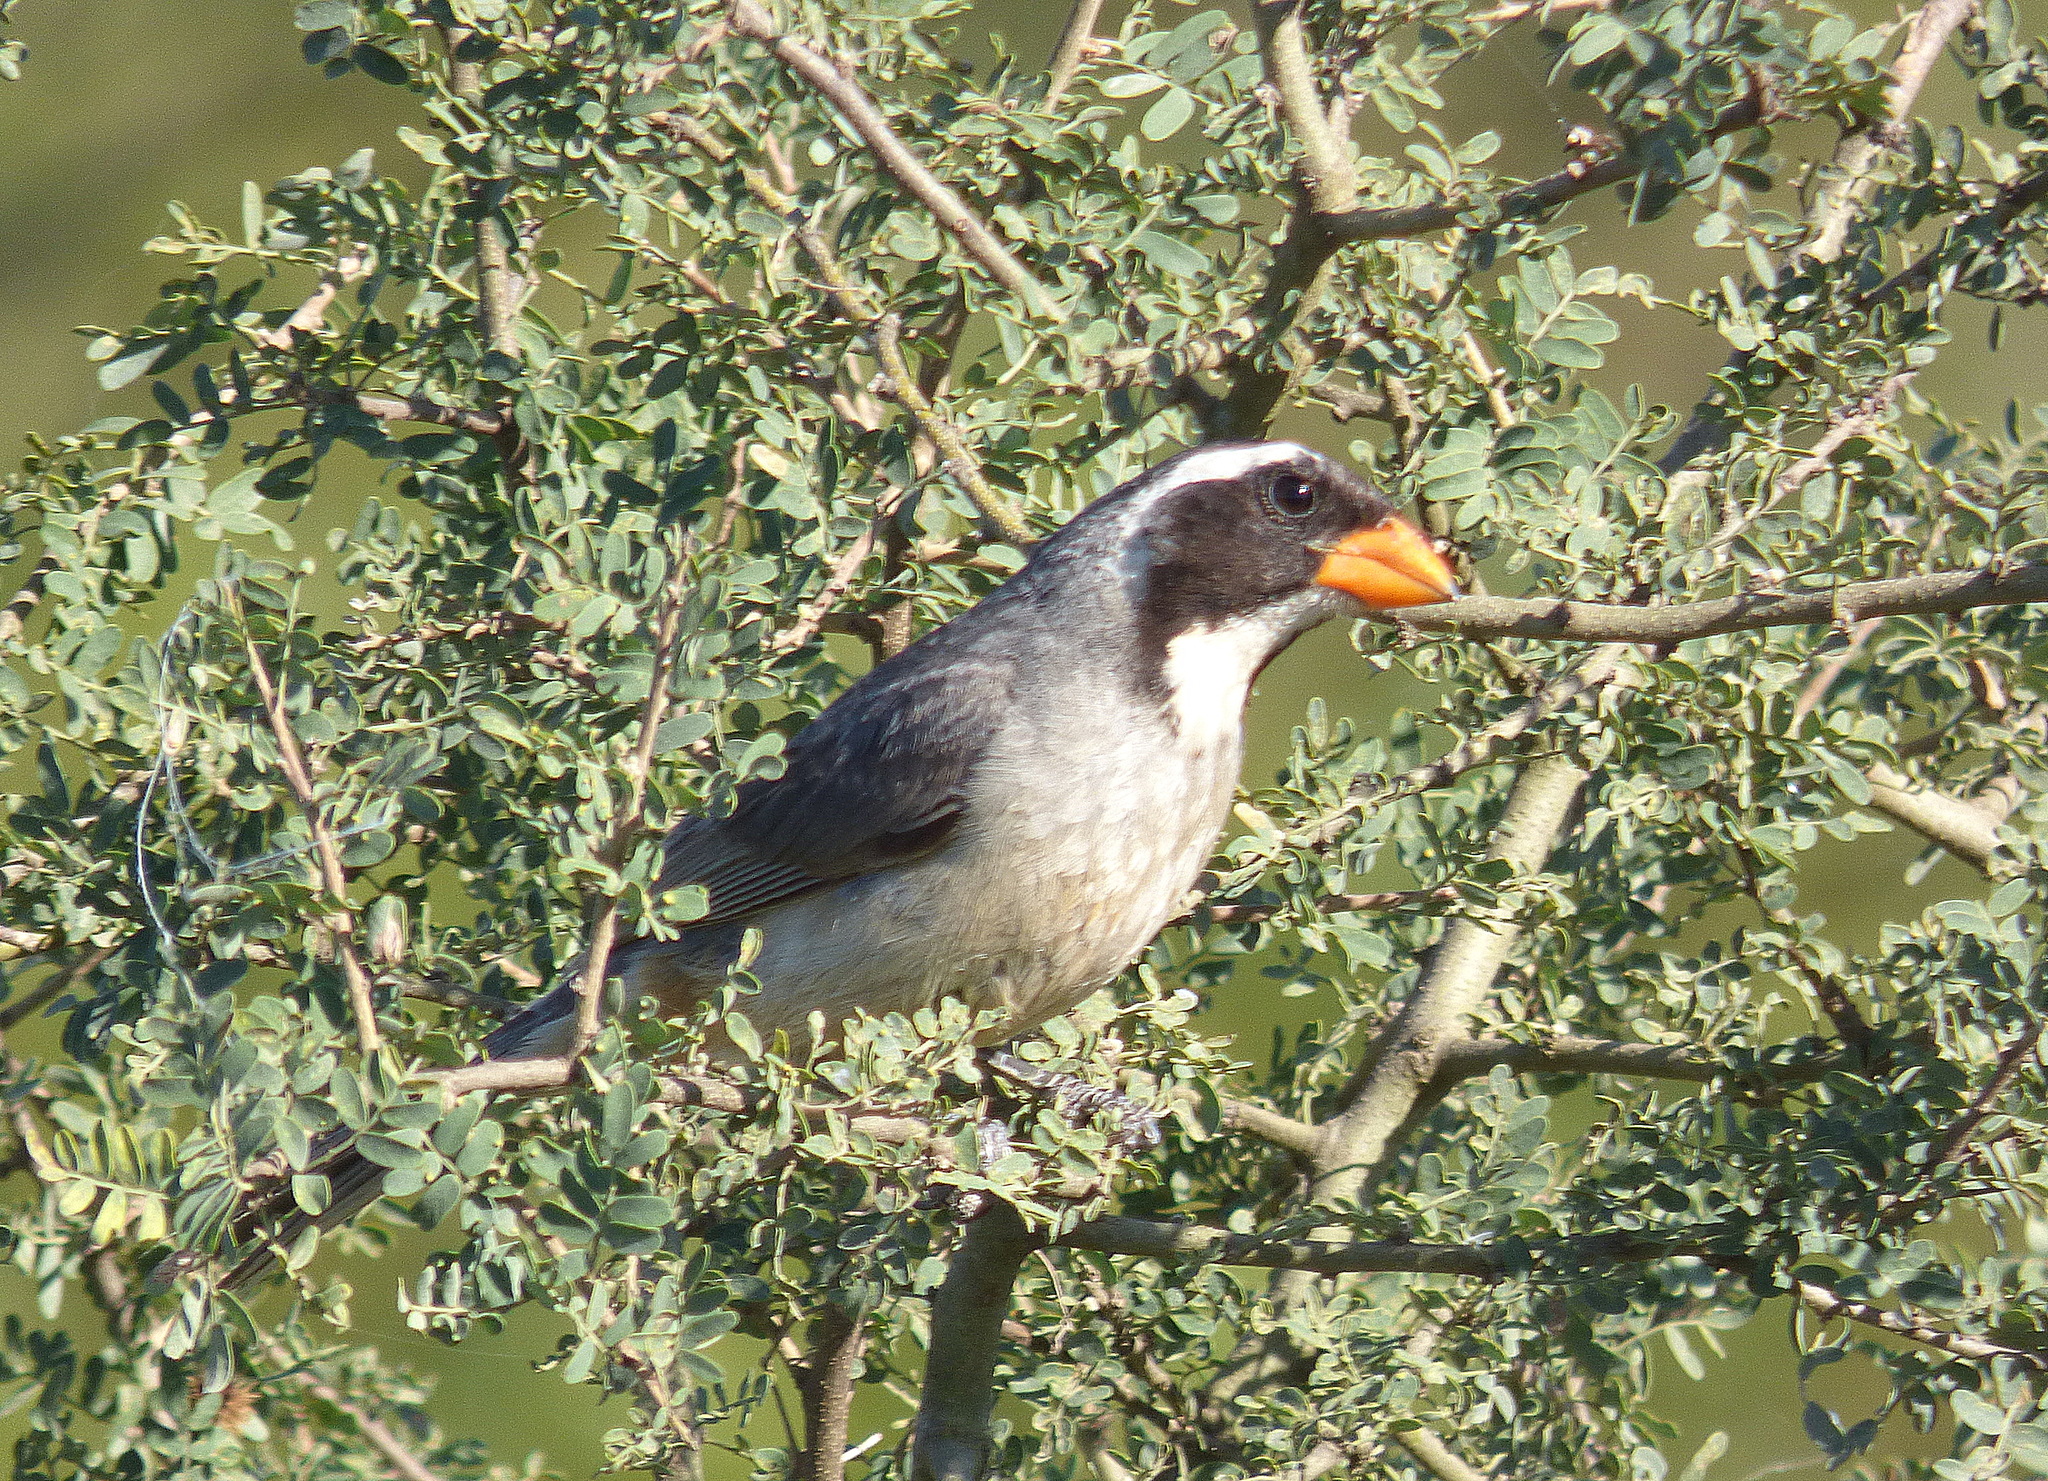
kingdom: Animalia
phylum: Chordata
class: Aves
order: Passeriformes
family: Thraupidae
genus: Saltator
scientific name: Saltator aurantiirostris
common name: Golden-billed saltator
